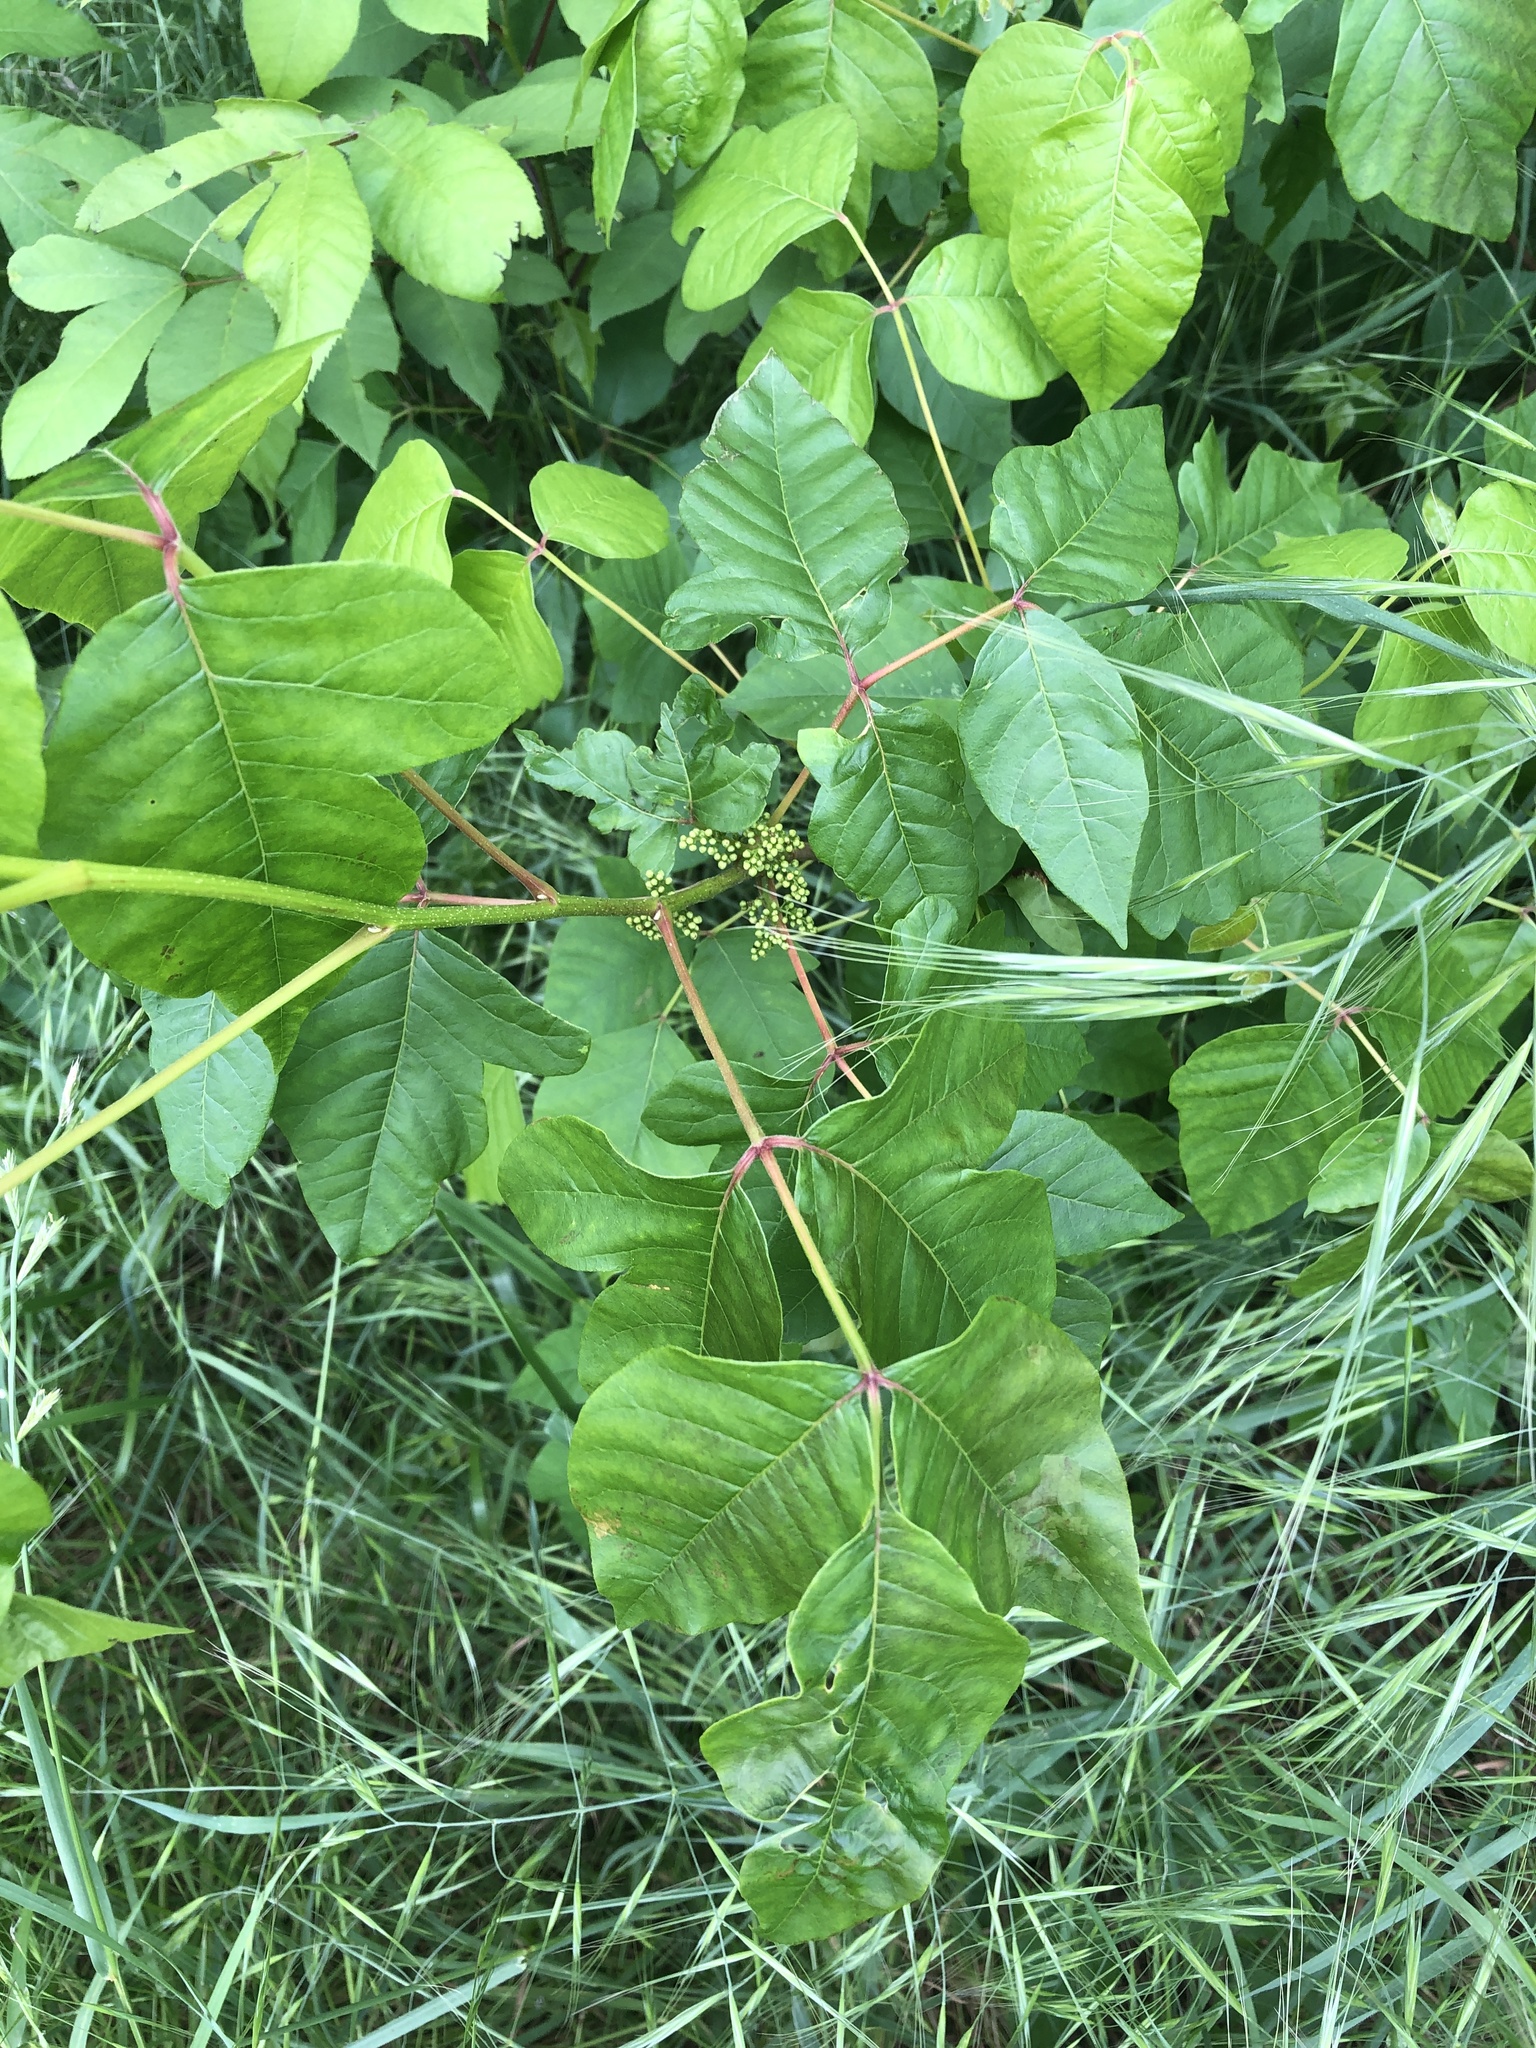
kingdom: Plantae
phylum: Tracheophyta
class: Magnoliopsida
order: Sapindales
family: Anacardiaceae
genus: Toxicodendron
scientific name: Toxicodendron radicans
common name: Poison ivy
